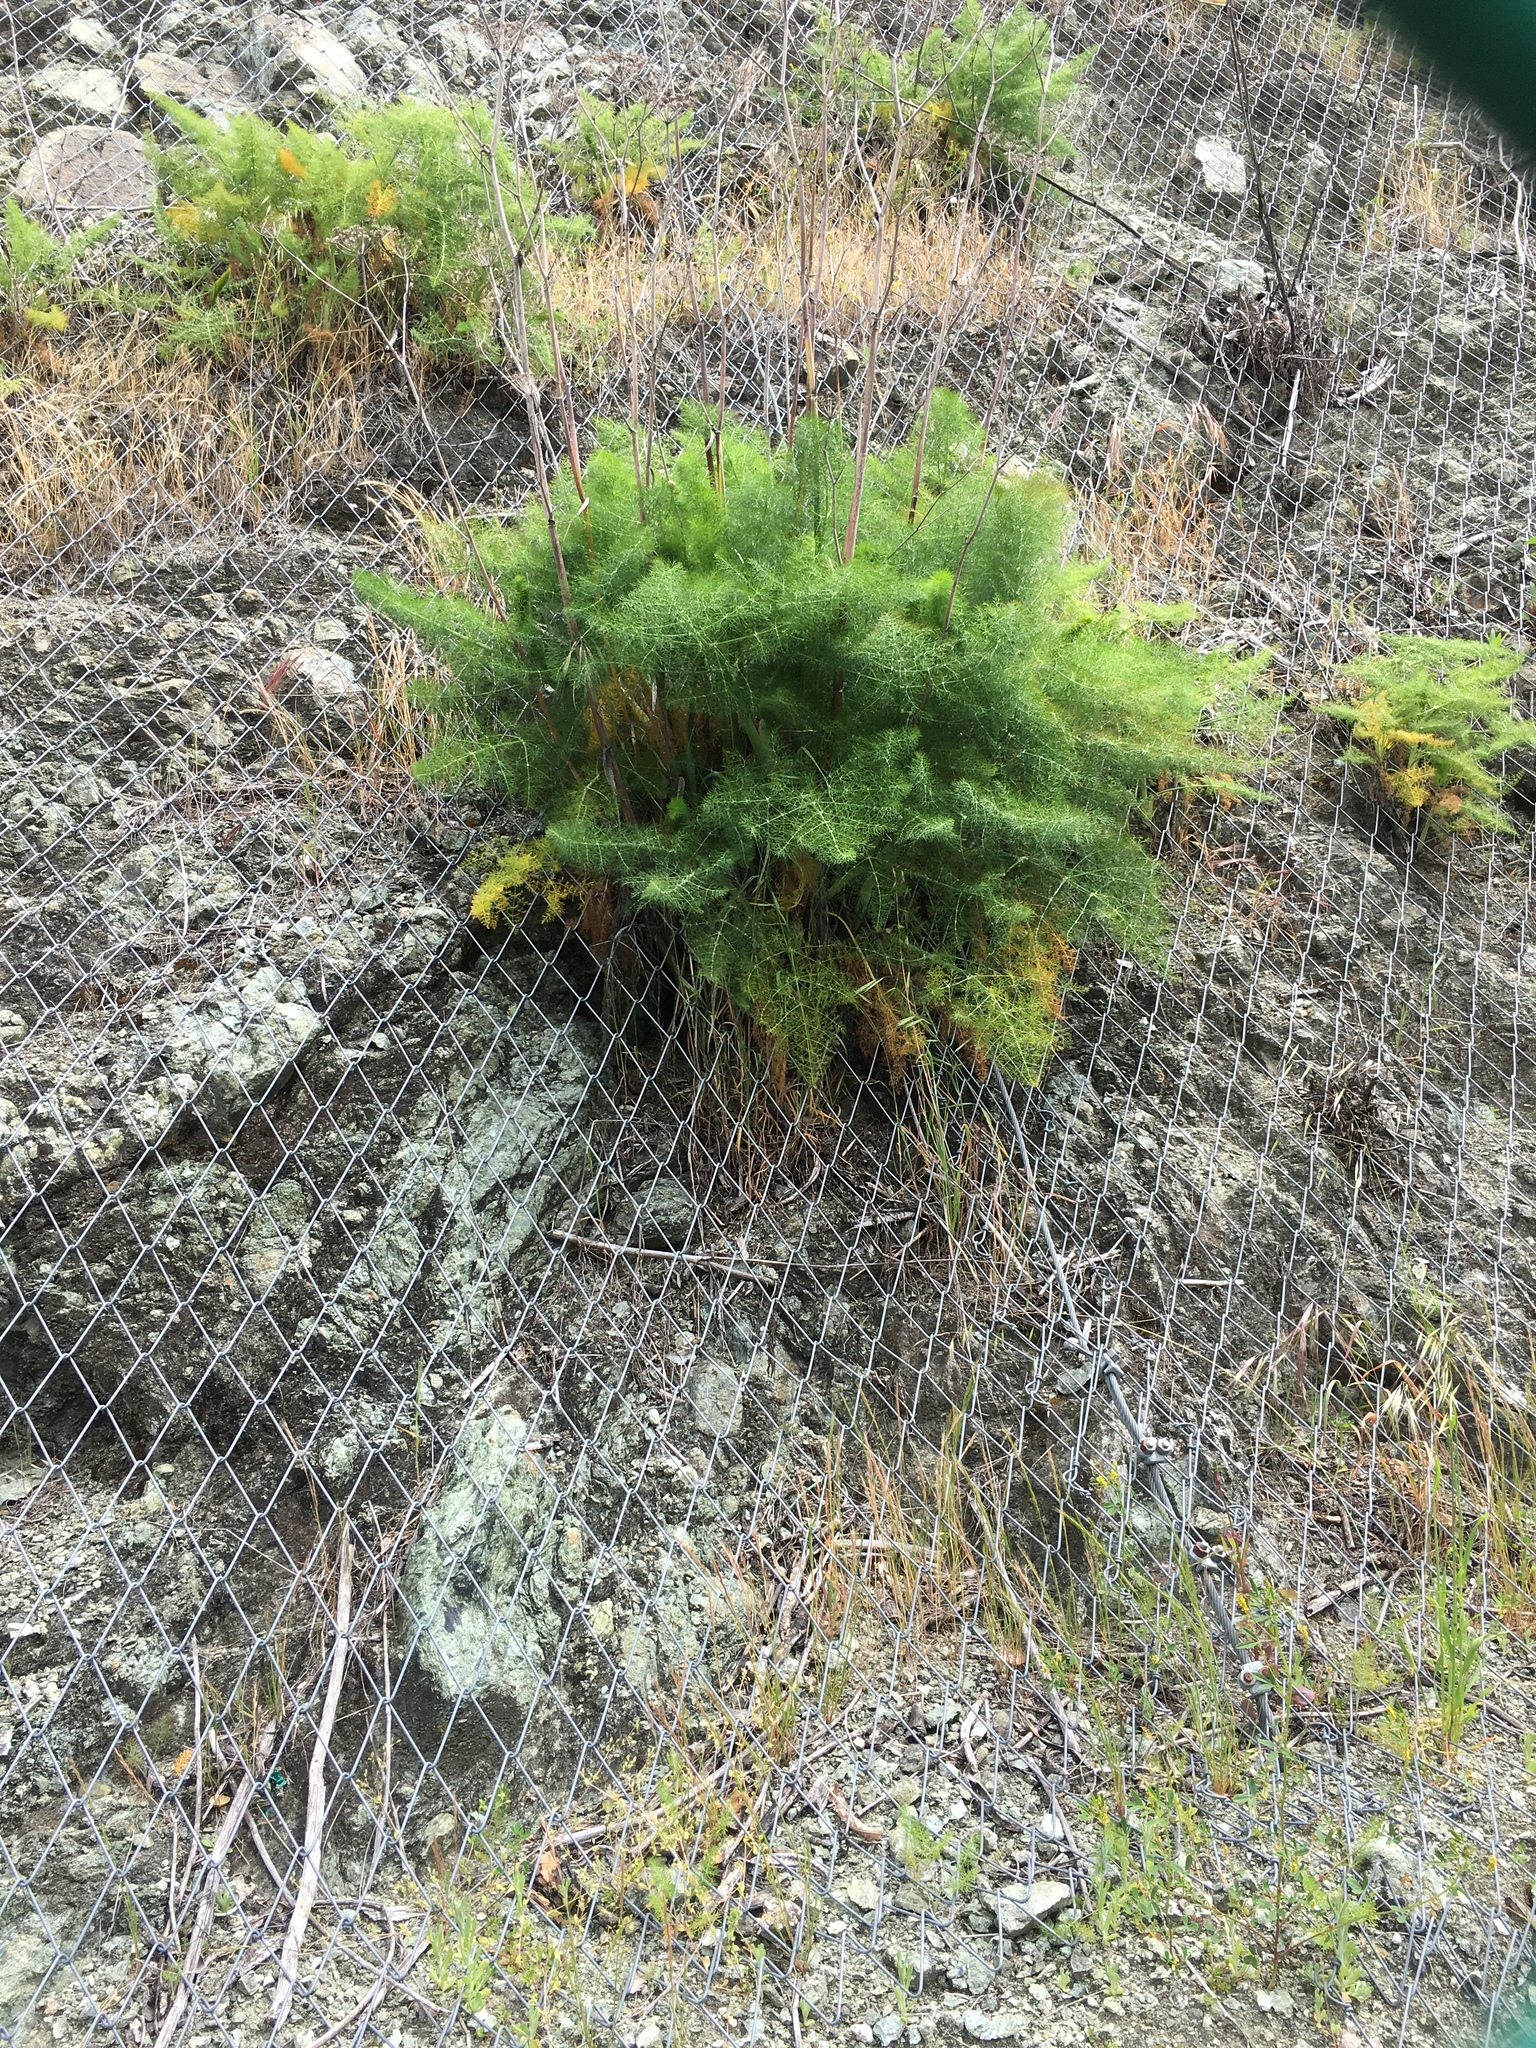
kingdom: Plantae
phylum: Tracheophyta
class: Magnoliopsida
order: Apiales
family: Apiaceae
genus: Foeniculum
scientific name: Foeniculum vulgare
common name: Fennel
